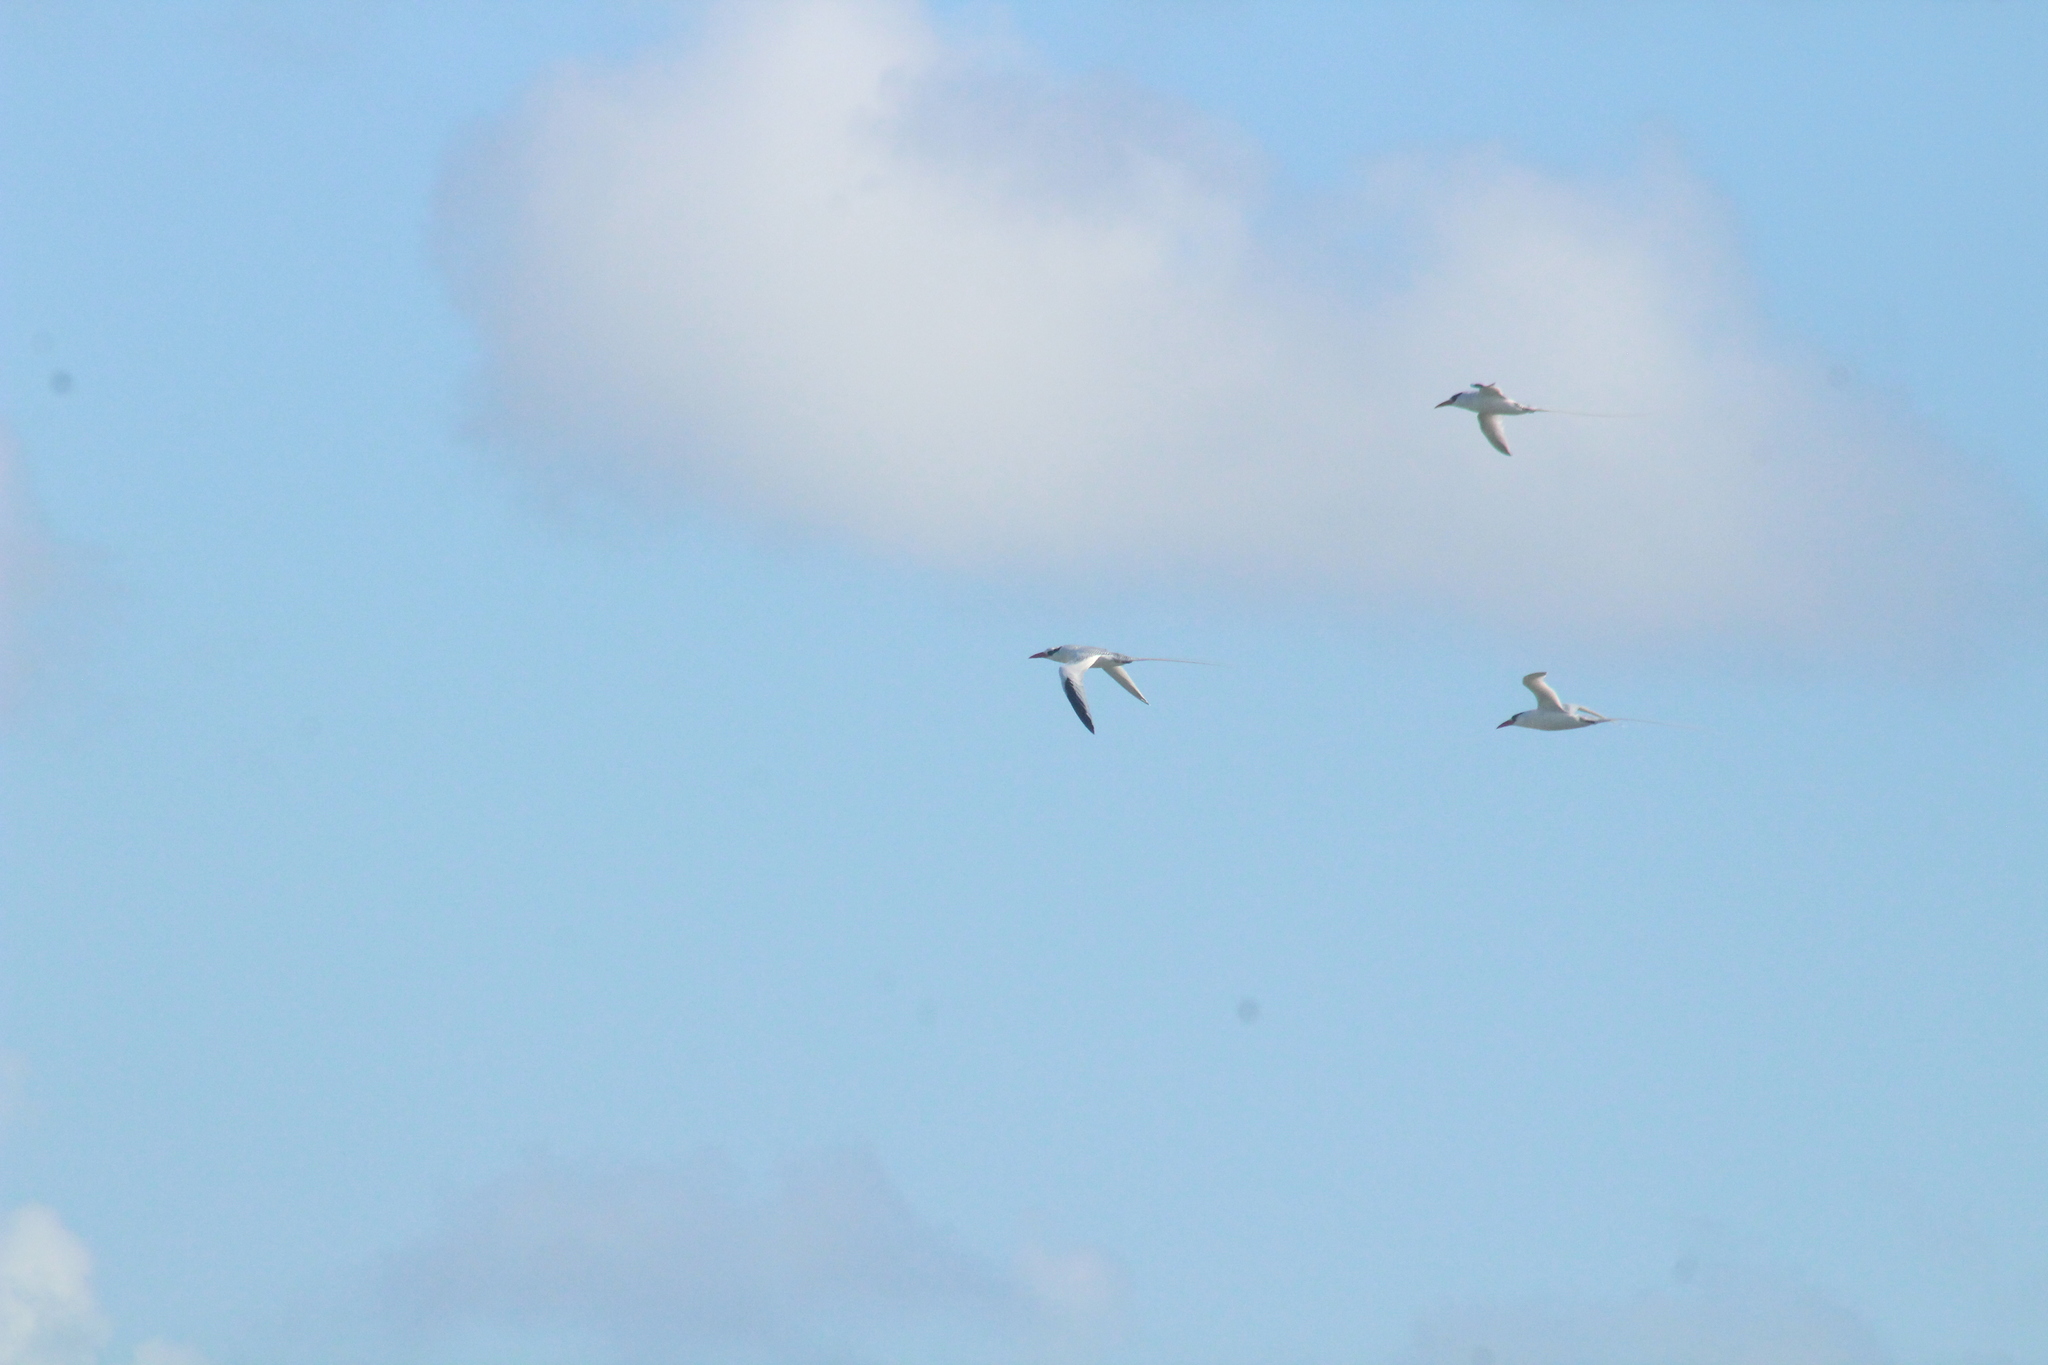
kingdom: Animalia
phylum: Chordata
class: Aves
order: Phaethontiformes
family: Phaethontidae
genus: Phaethon
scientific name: Phaethon aethereus
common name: Red-billed tropicbird
